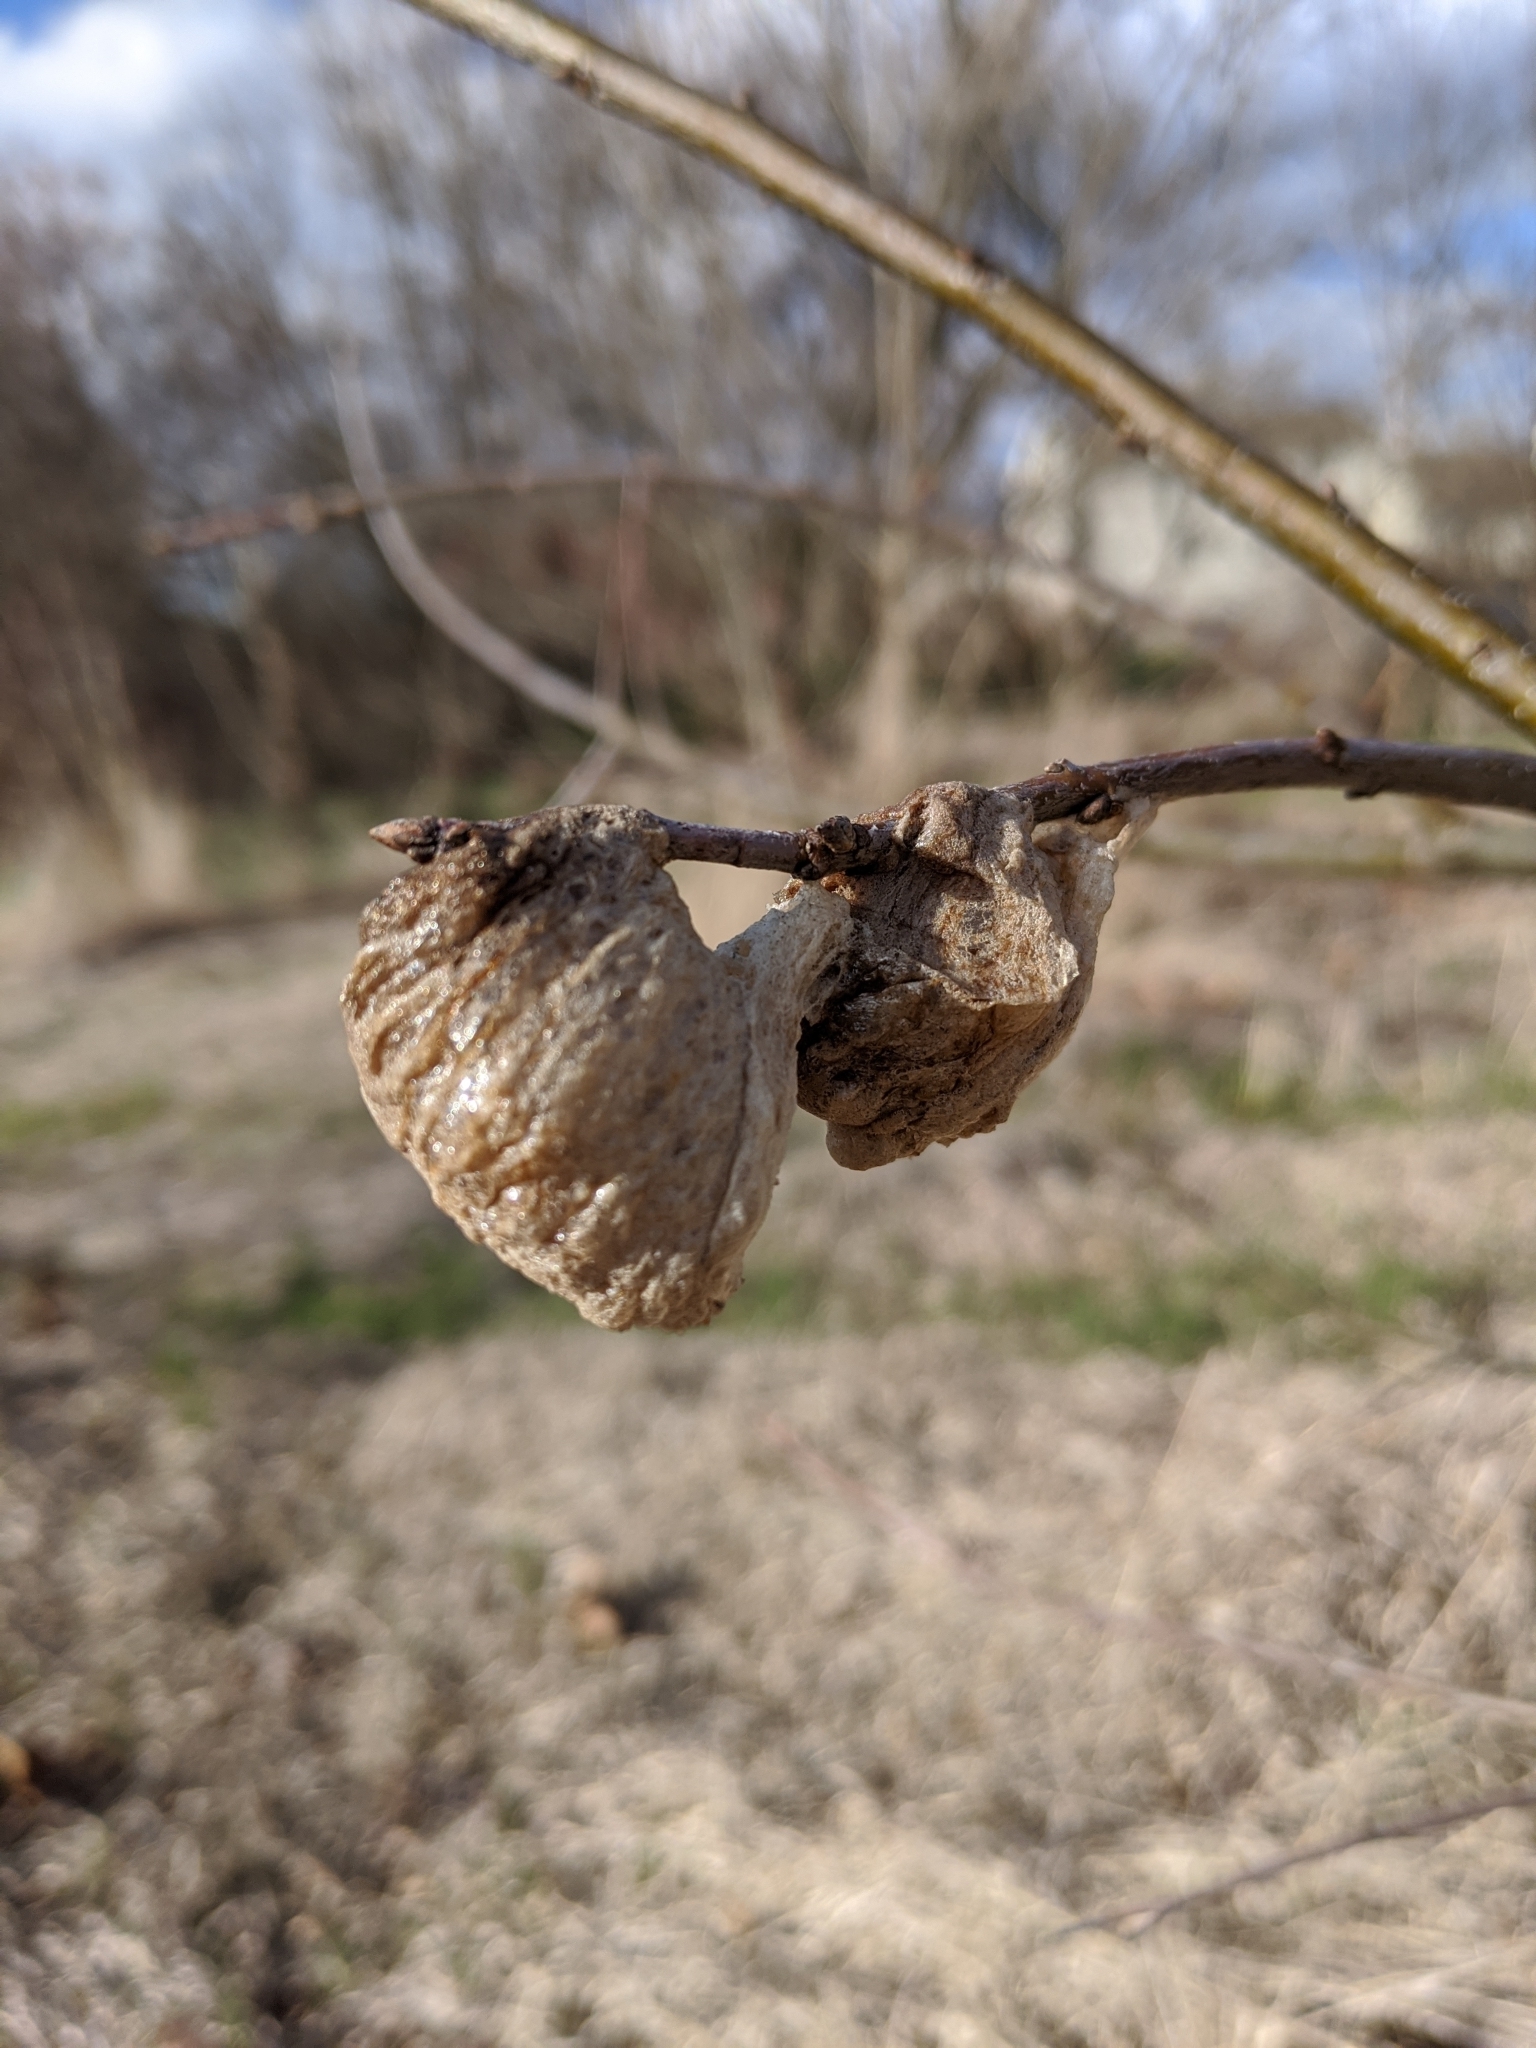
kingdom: Animalia
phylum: Arthropoda
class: Insecta
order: Mantodea
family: Mantidae
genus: Tenodera
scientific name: Tenodera sinensis
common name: Chinese mantis
